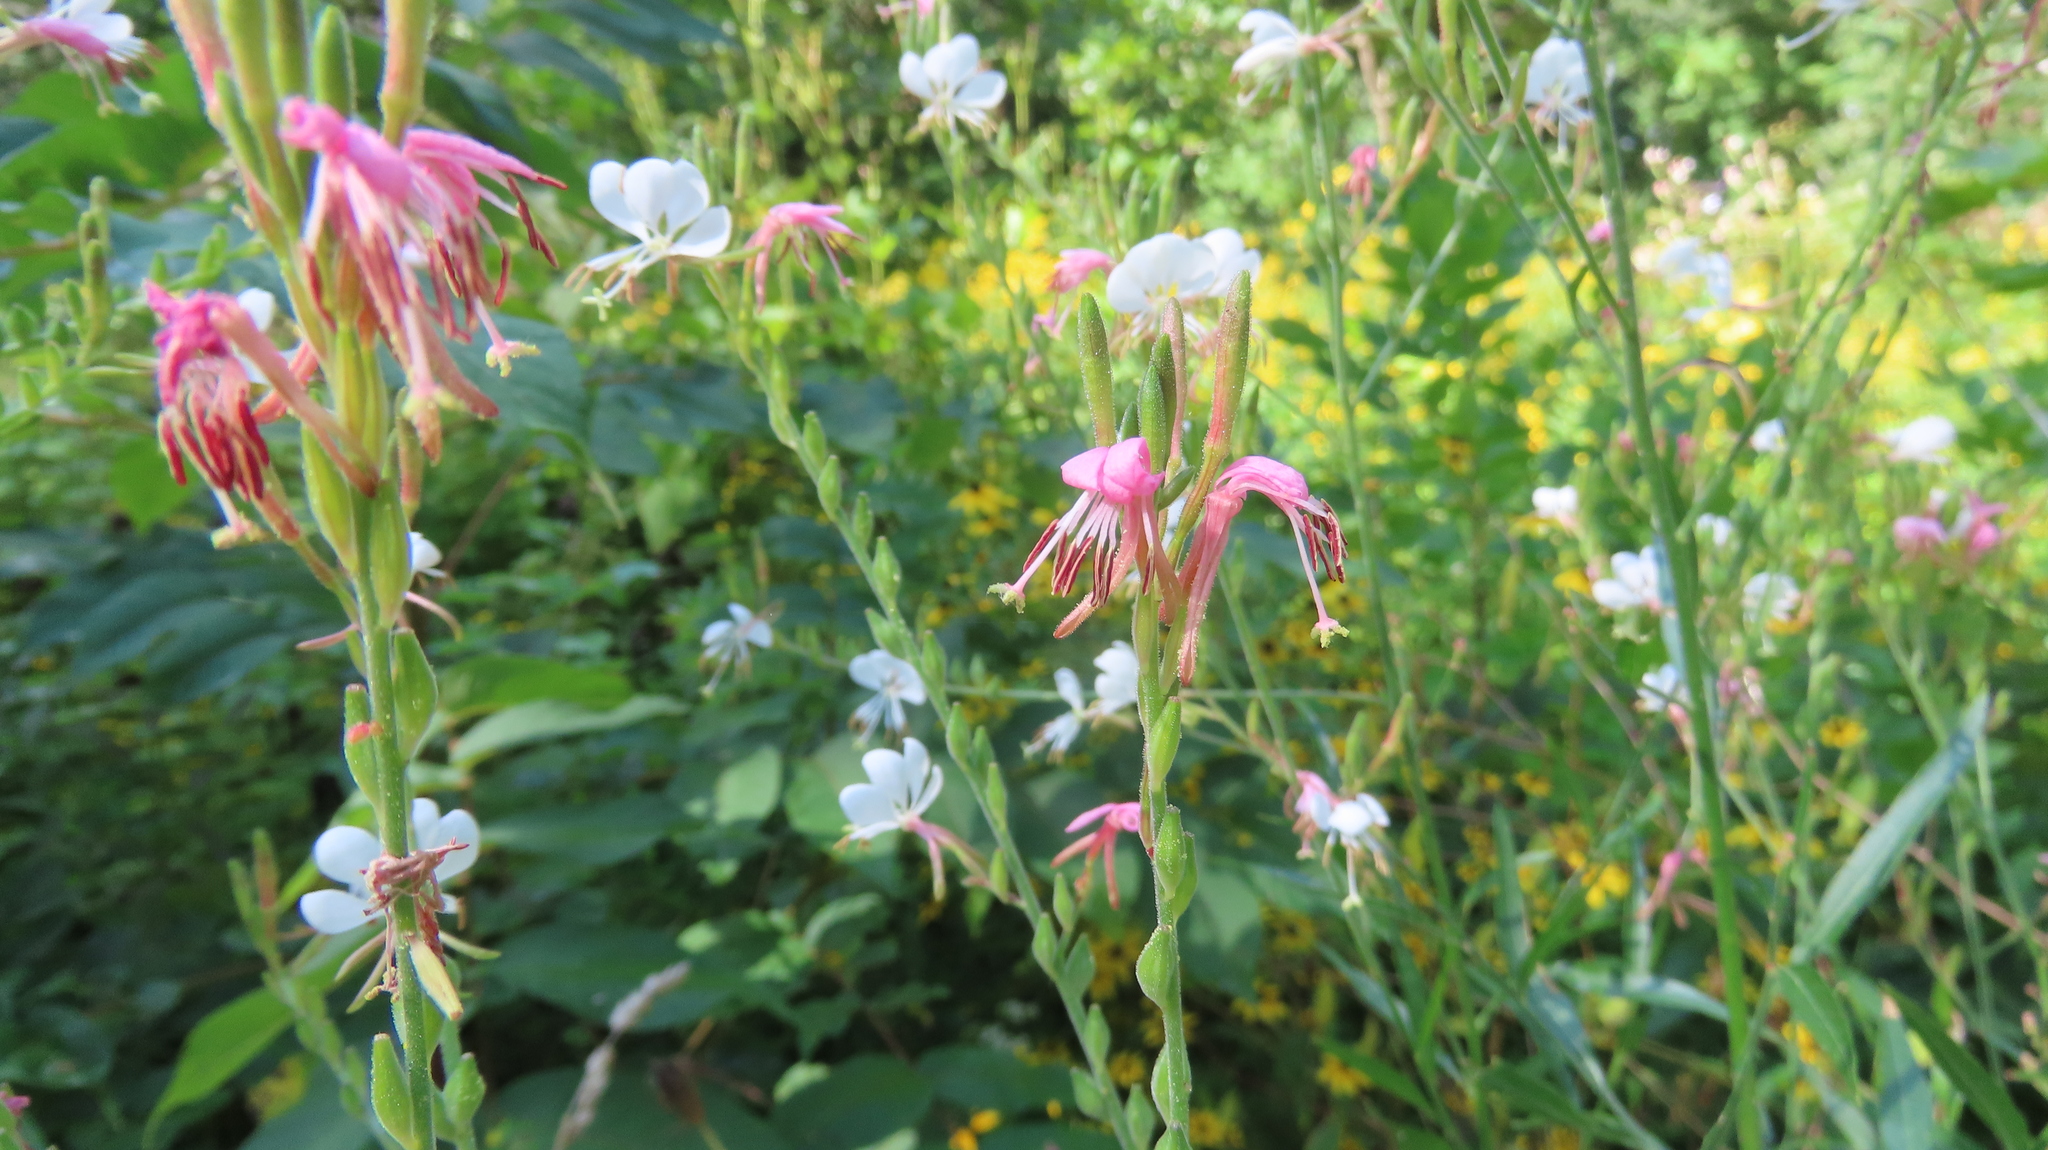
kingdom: Plantae
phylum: Tracheophyta
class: Magnoliopsida
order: Myrtales
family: Onagraceae
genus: Oenothera
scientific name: Oenothera gaura
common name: Biennial beeblossom
